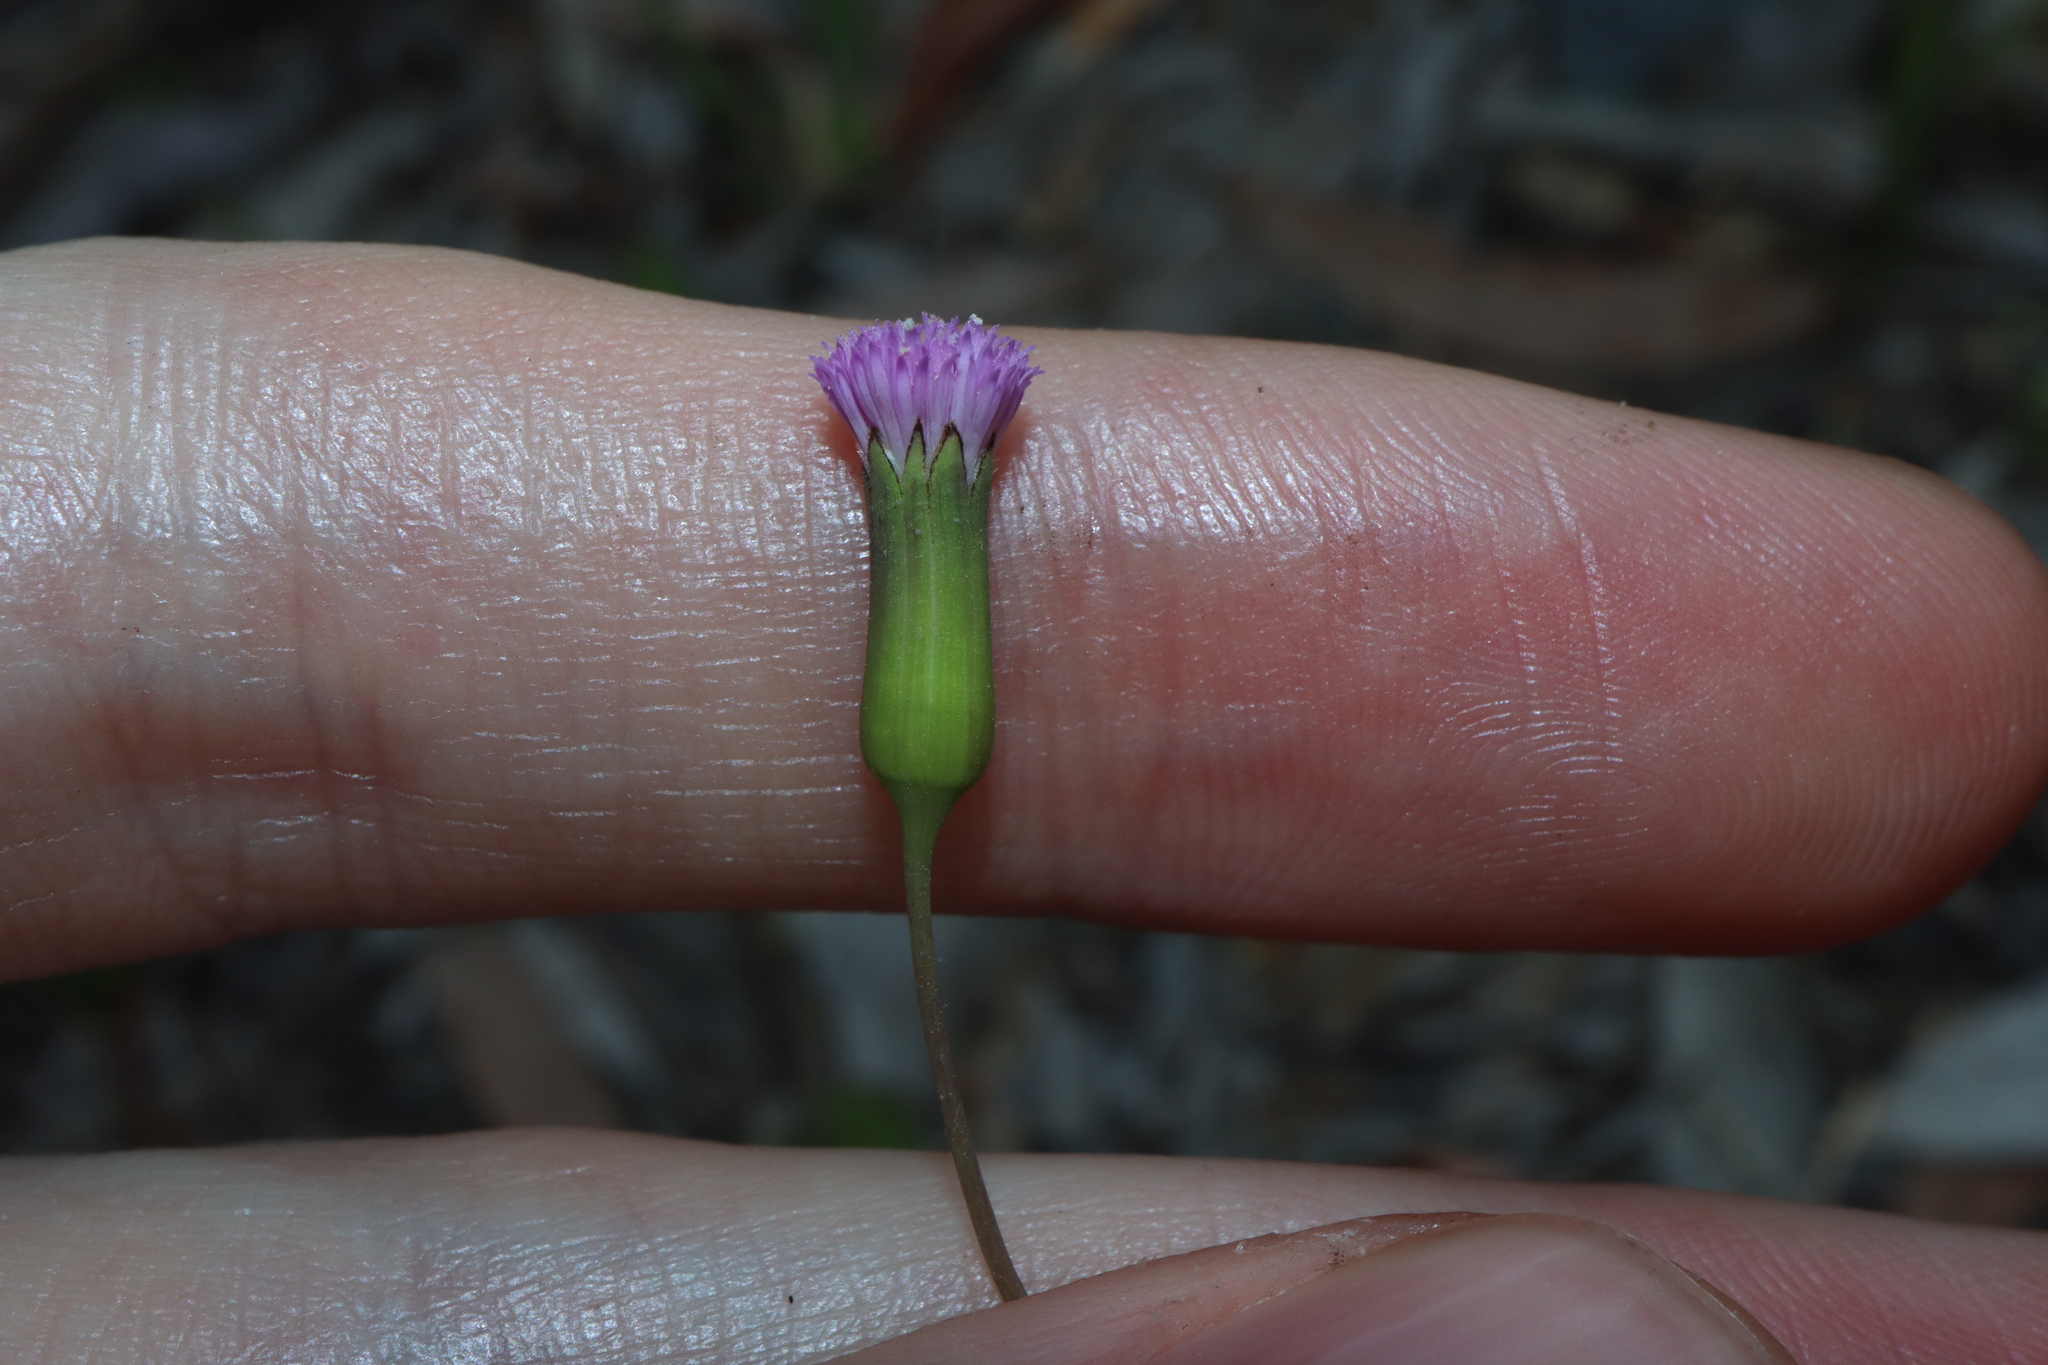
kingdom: Plantae
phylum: Tracheophyta
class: Magnoliopsida
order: Asterales
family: Asteraceae
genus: Emilia
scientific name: Emilia javanica
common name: Tassel-flower
